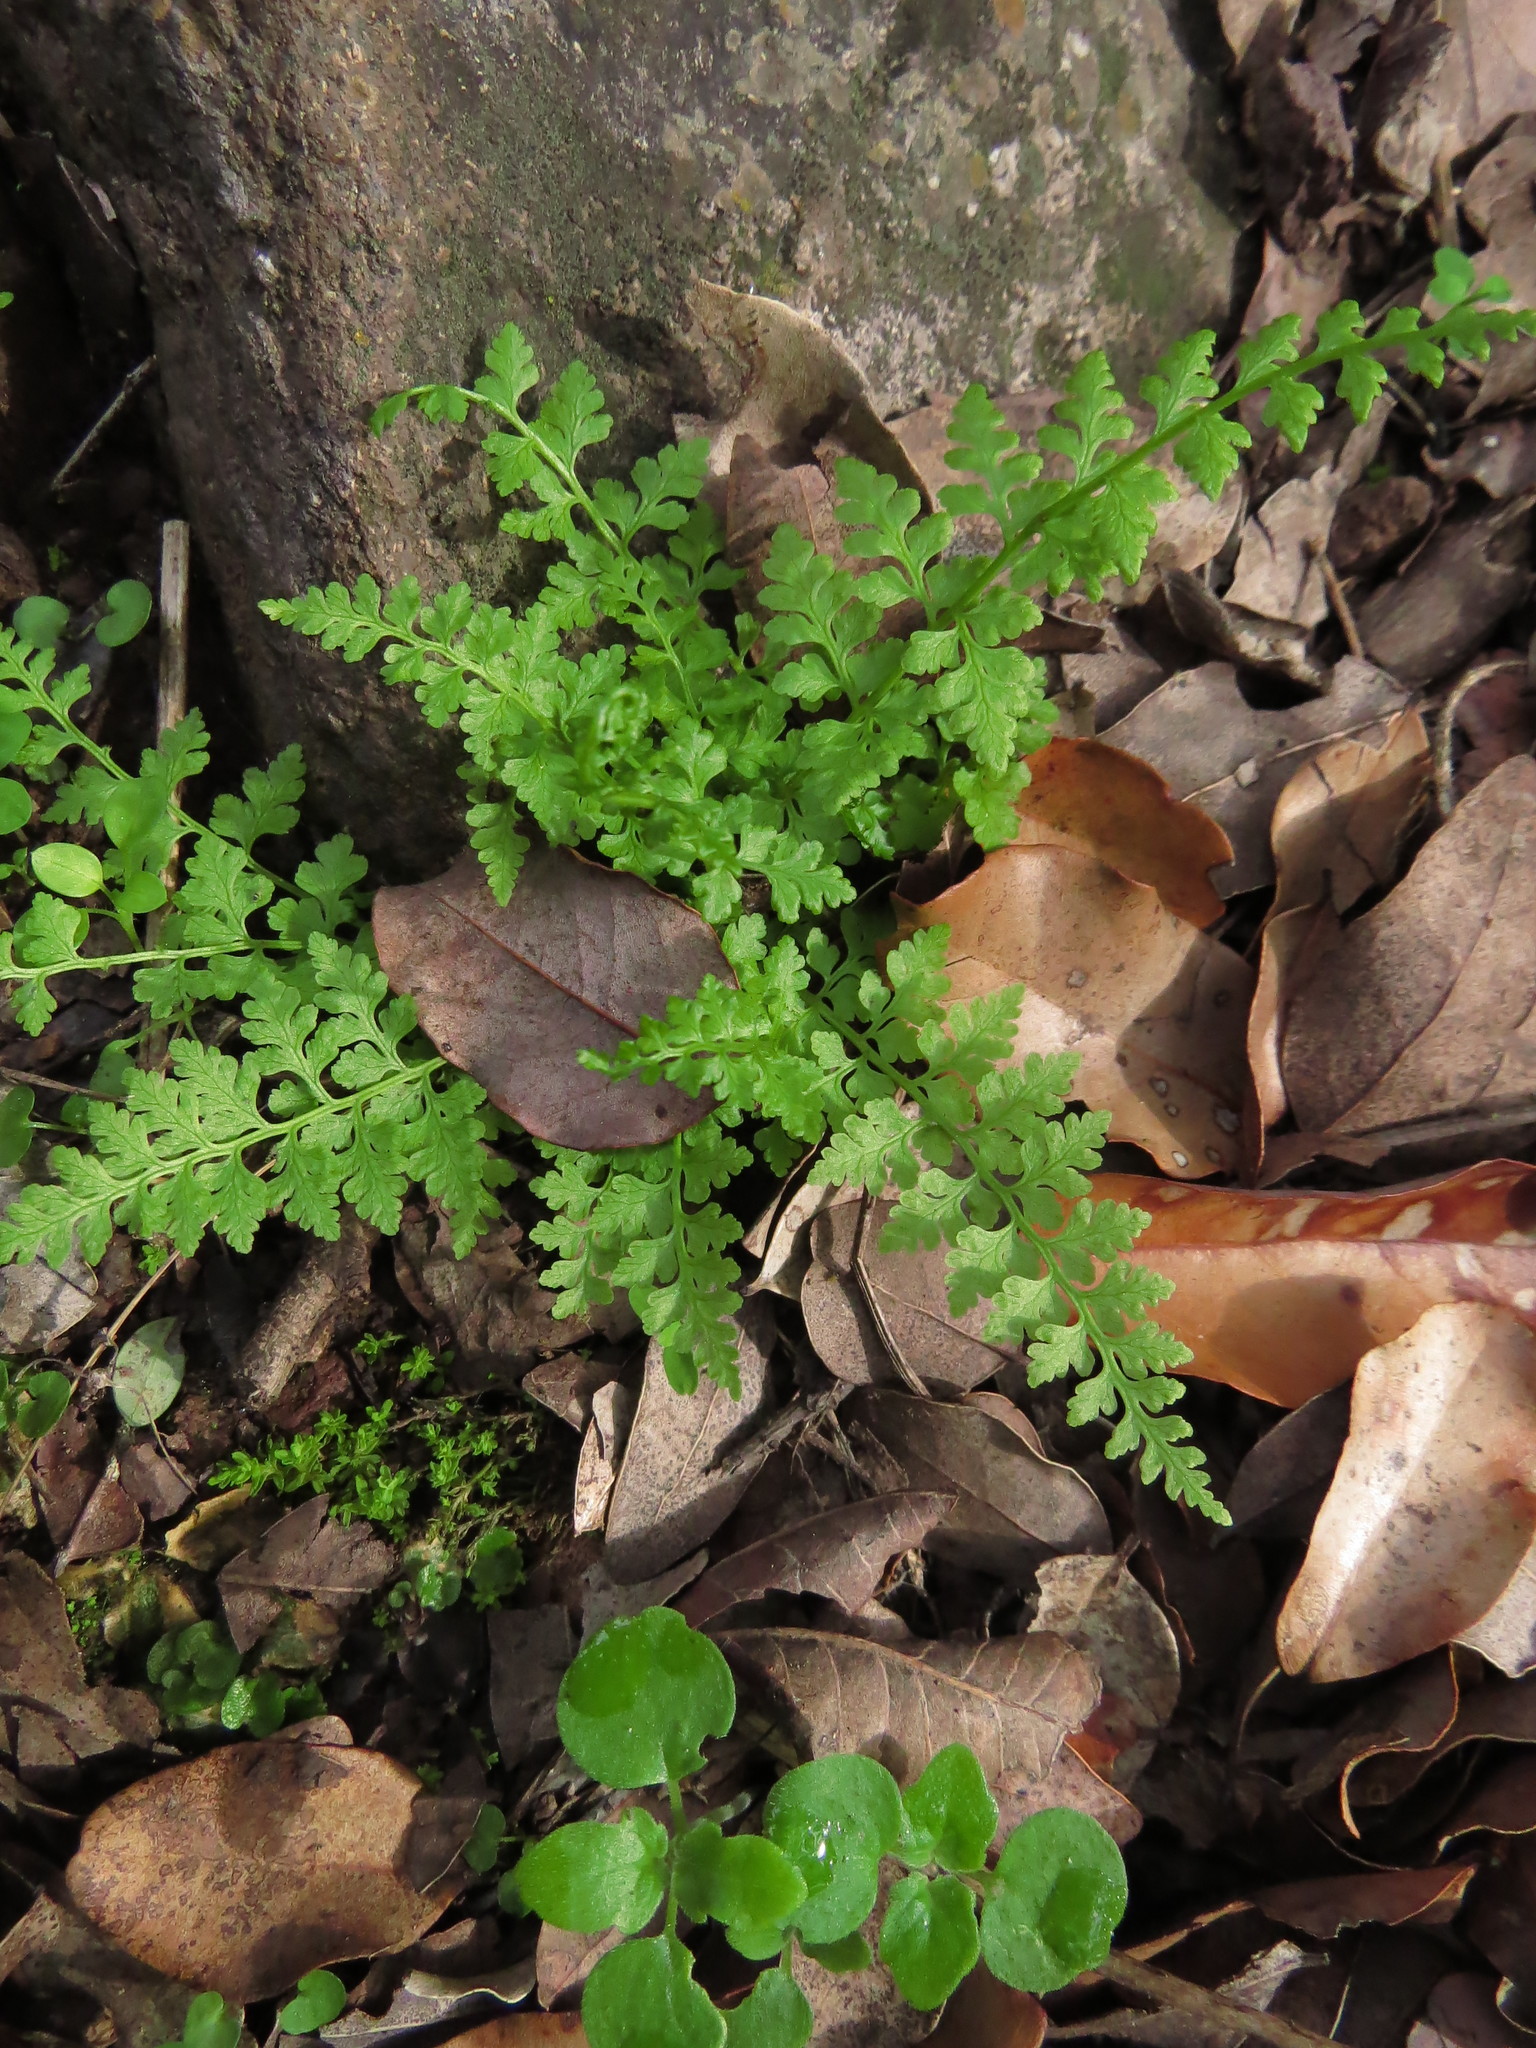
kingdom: Plantae
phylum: Tracheophyta
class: Polypodiopsida
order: Polypodiales
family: Cystopteridaceae
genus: Cystopteris
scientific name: Cystopteris fragilis
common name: Brittle bladder fern
